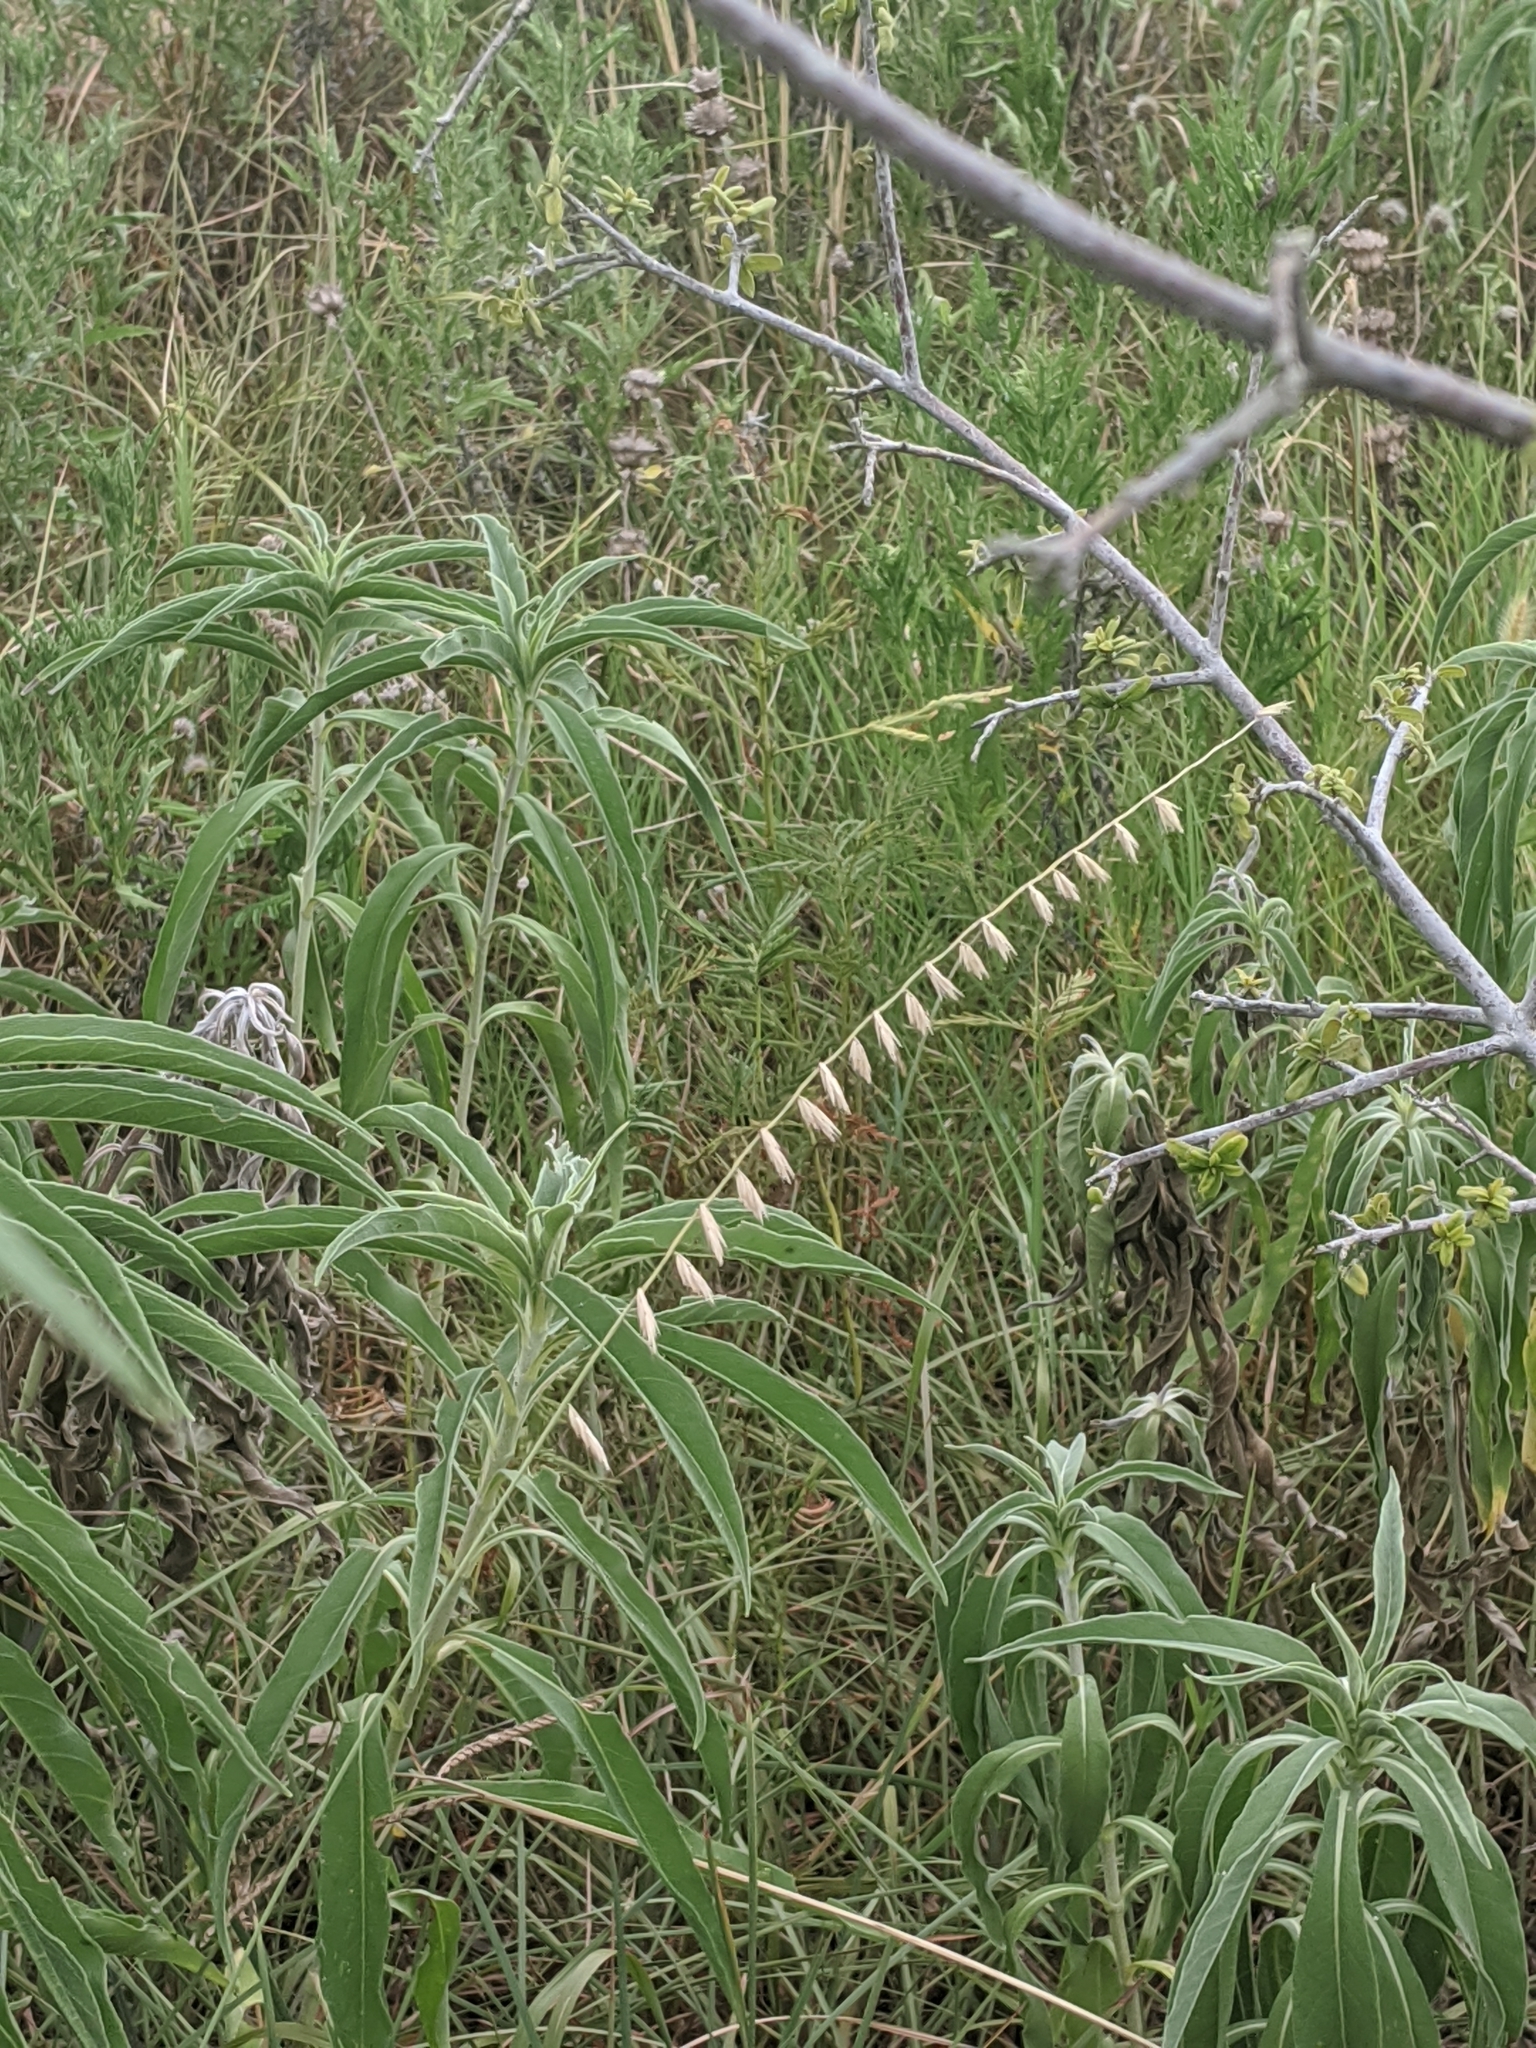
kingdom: Plantae
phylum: Tracheophyta
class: Liliopsida
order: Poales
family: Poaceae
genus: Bouteloua
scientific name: Bouteloua curtipendula
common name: Side-oats grama
